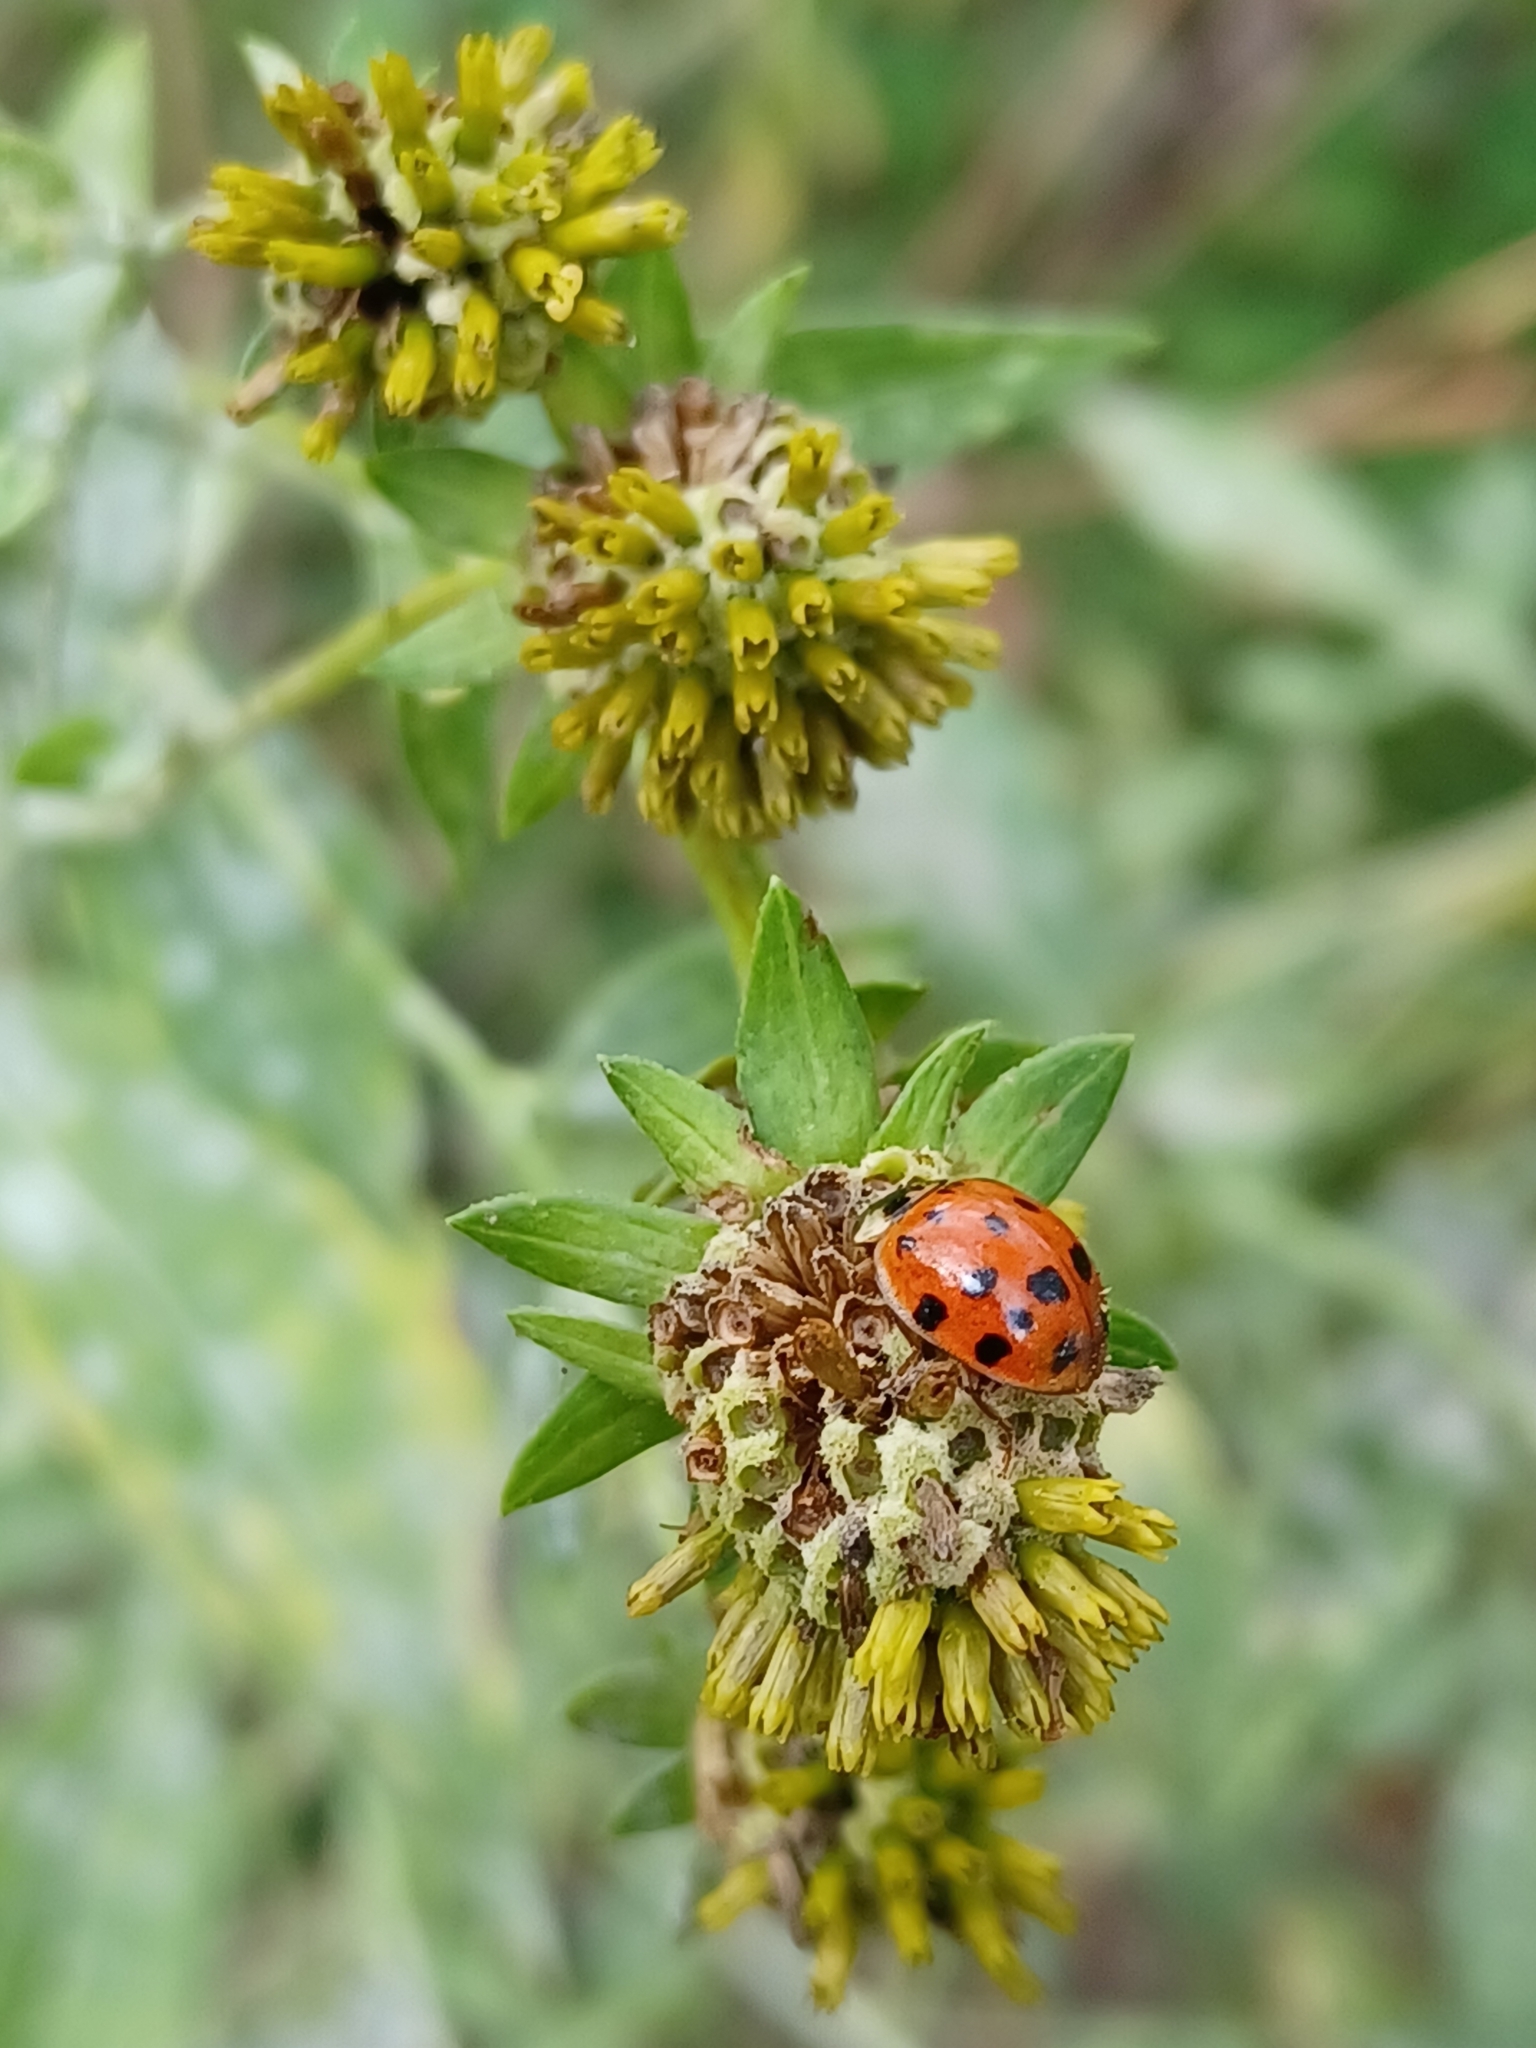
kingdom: Animalia
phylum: Arthropoda
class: Insecta
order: Coleoptera
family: Coccinellidae
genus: Harmonia
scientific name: Harmonia axyridis
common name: Harlequin ladybird
